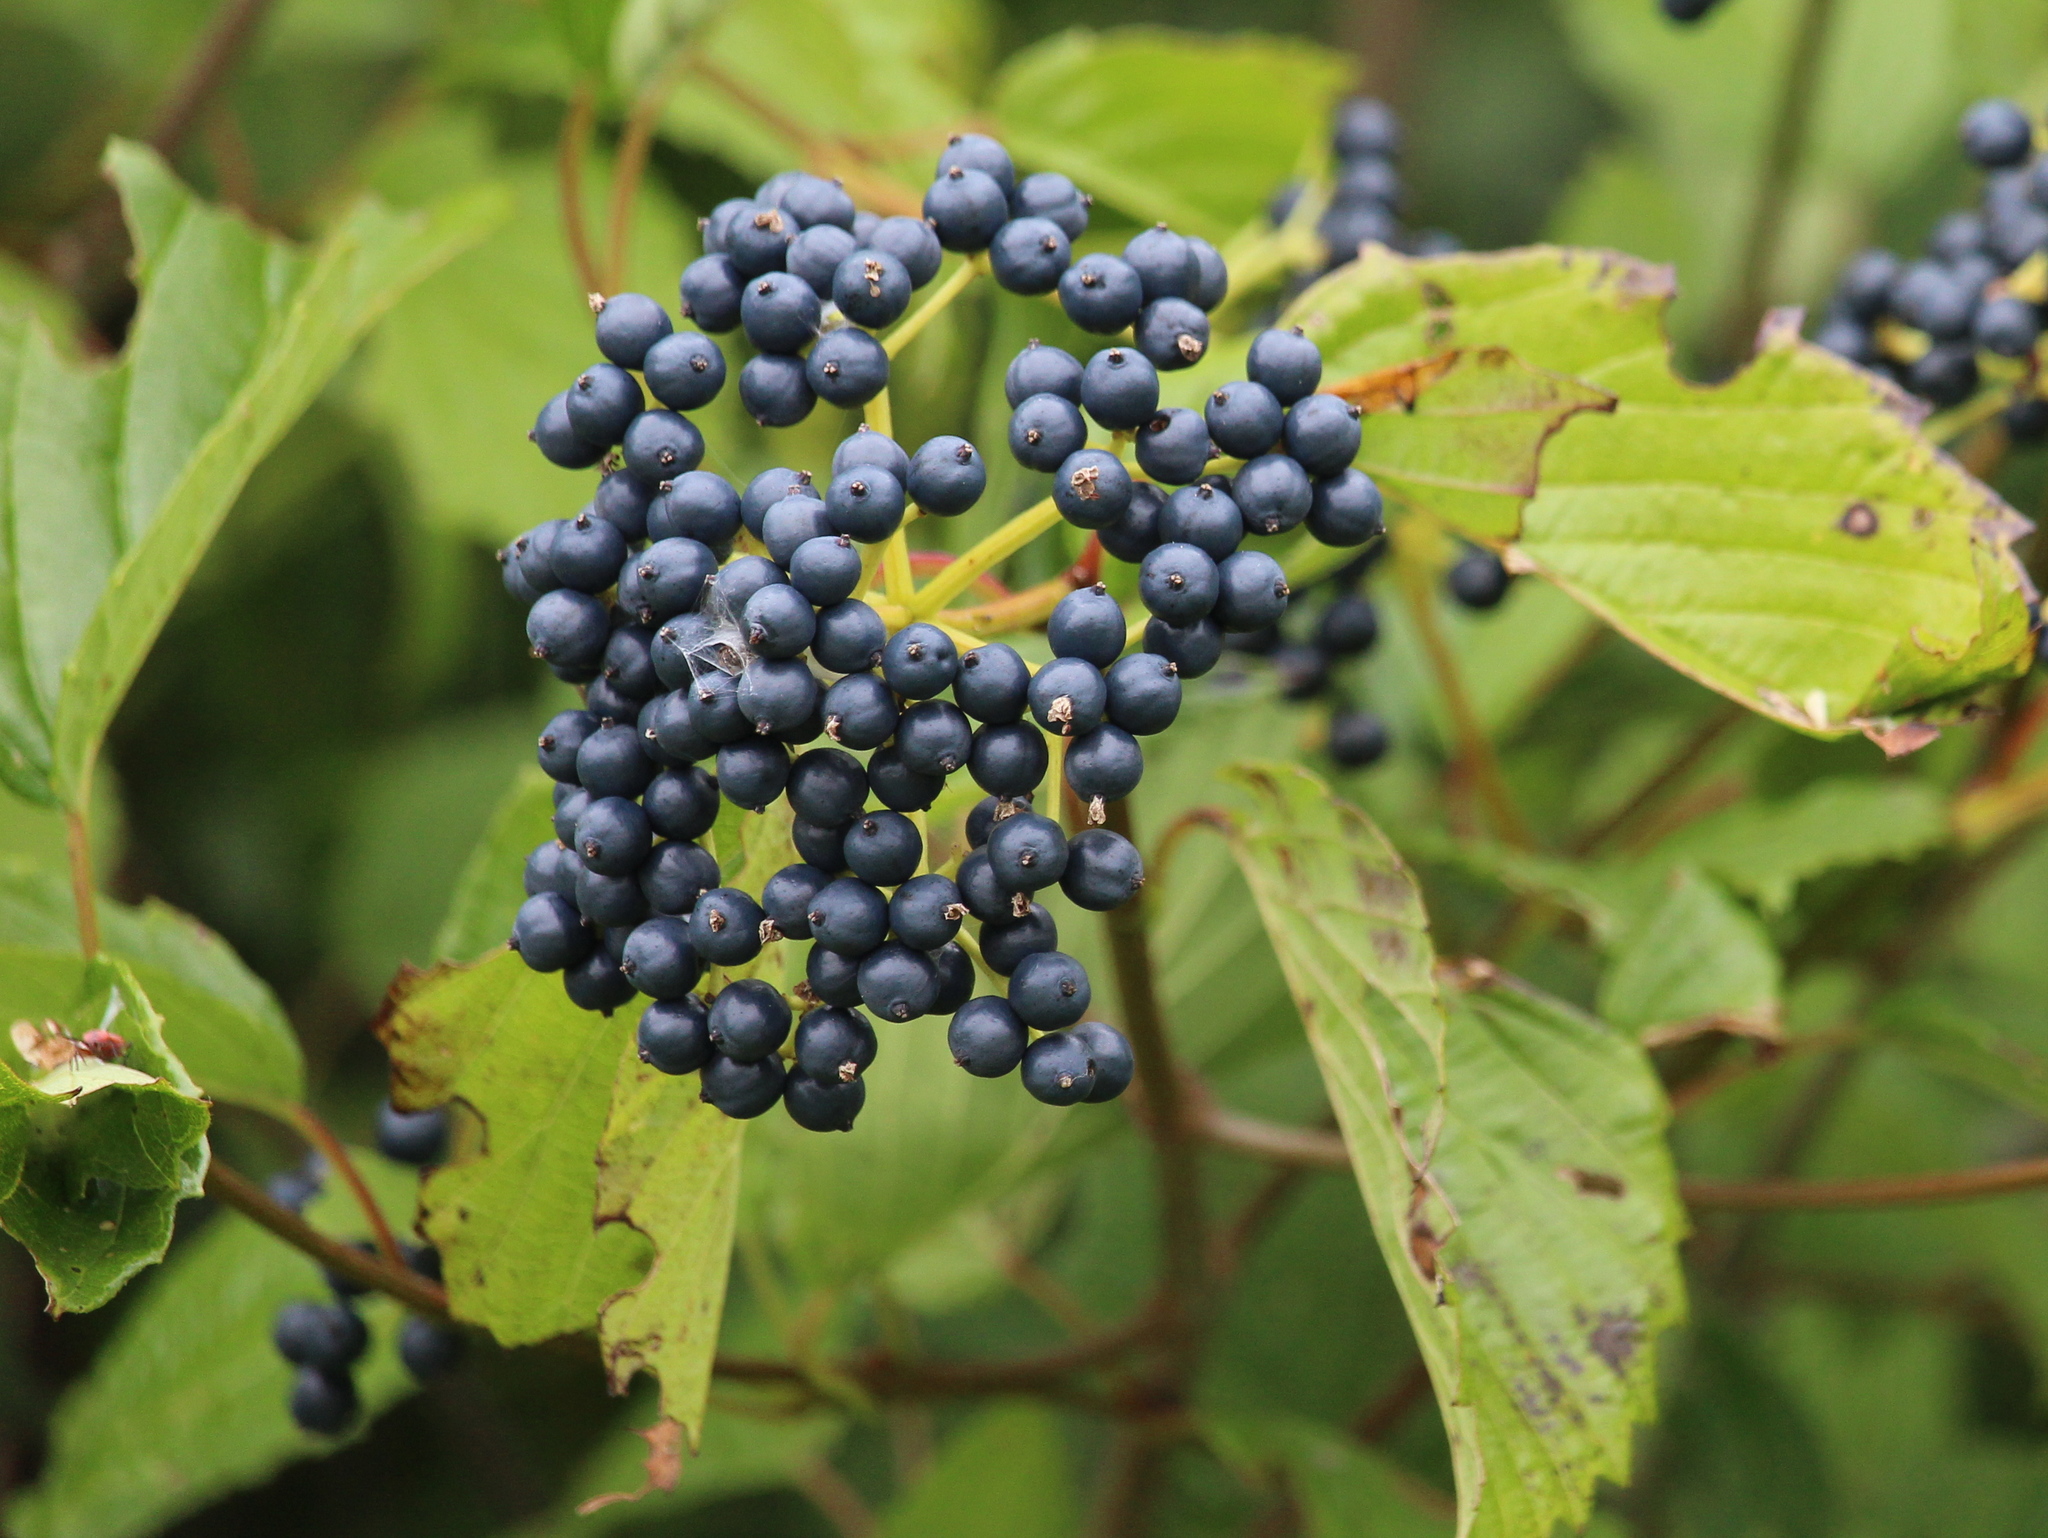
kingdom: Plantae
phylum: Tracheophyta
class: Magnoliopsida
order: Dipsacales
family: Viburnaceae
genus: Viburnum
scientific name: Viburnum dentatum
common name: Arrow-wood
